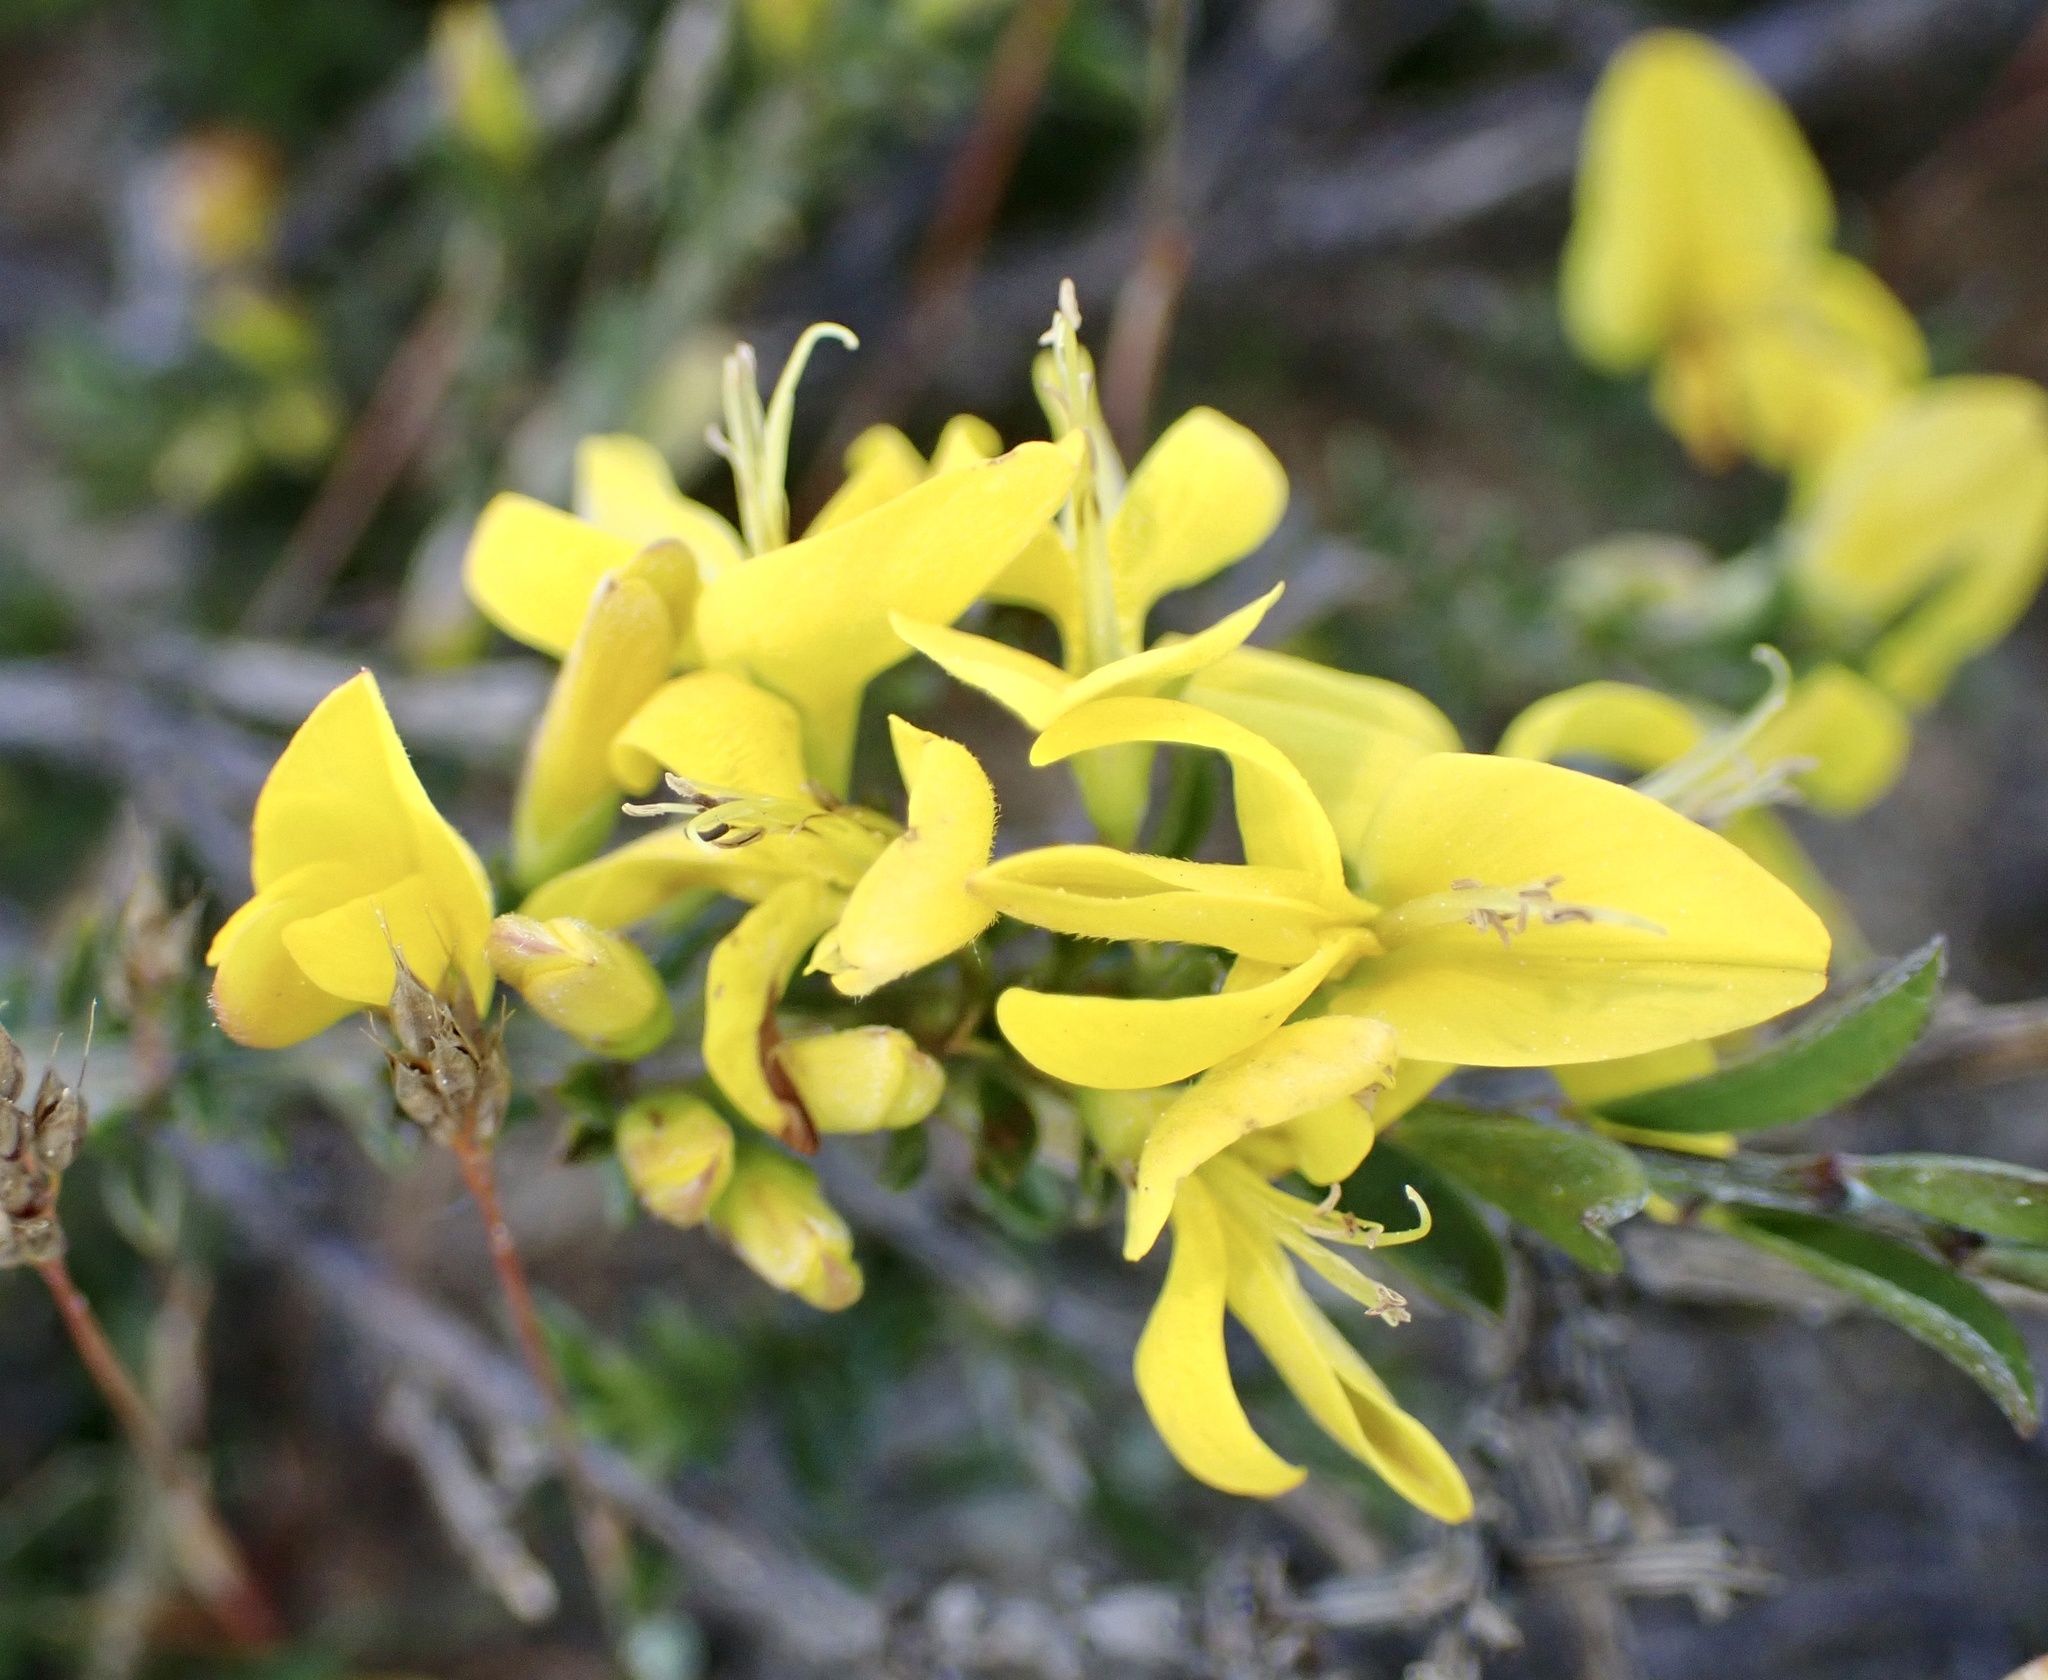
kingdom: Plantae
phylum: Tracheophyta
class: Magnoliopsida
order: Fabales
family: Fabaceae
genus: Genista
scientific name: Genista pilosa
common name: Hairy greenweed
